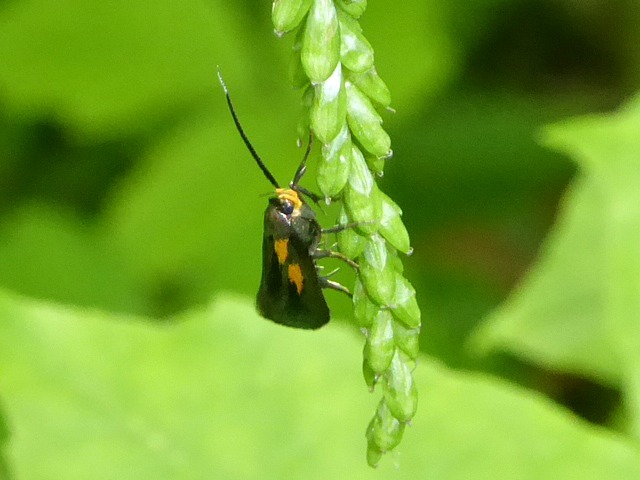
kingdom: Animalia
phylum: Arthropoda
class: Insecta
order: Lepidoptera
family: Oecophoridae
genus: Mathildana
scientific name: Mathildana newmanella
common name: Newman's mathildana moth
